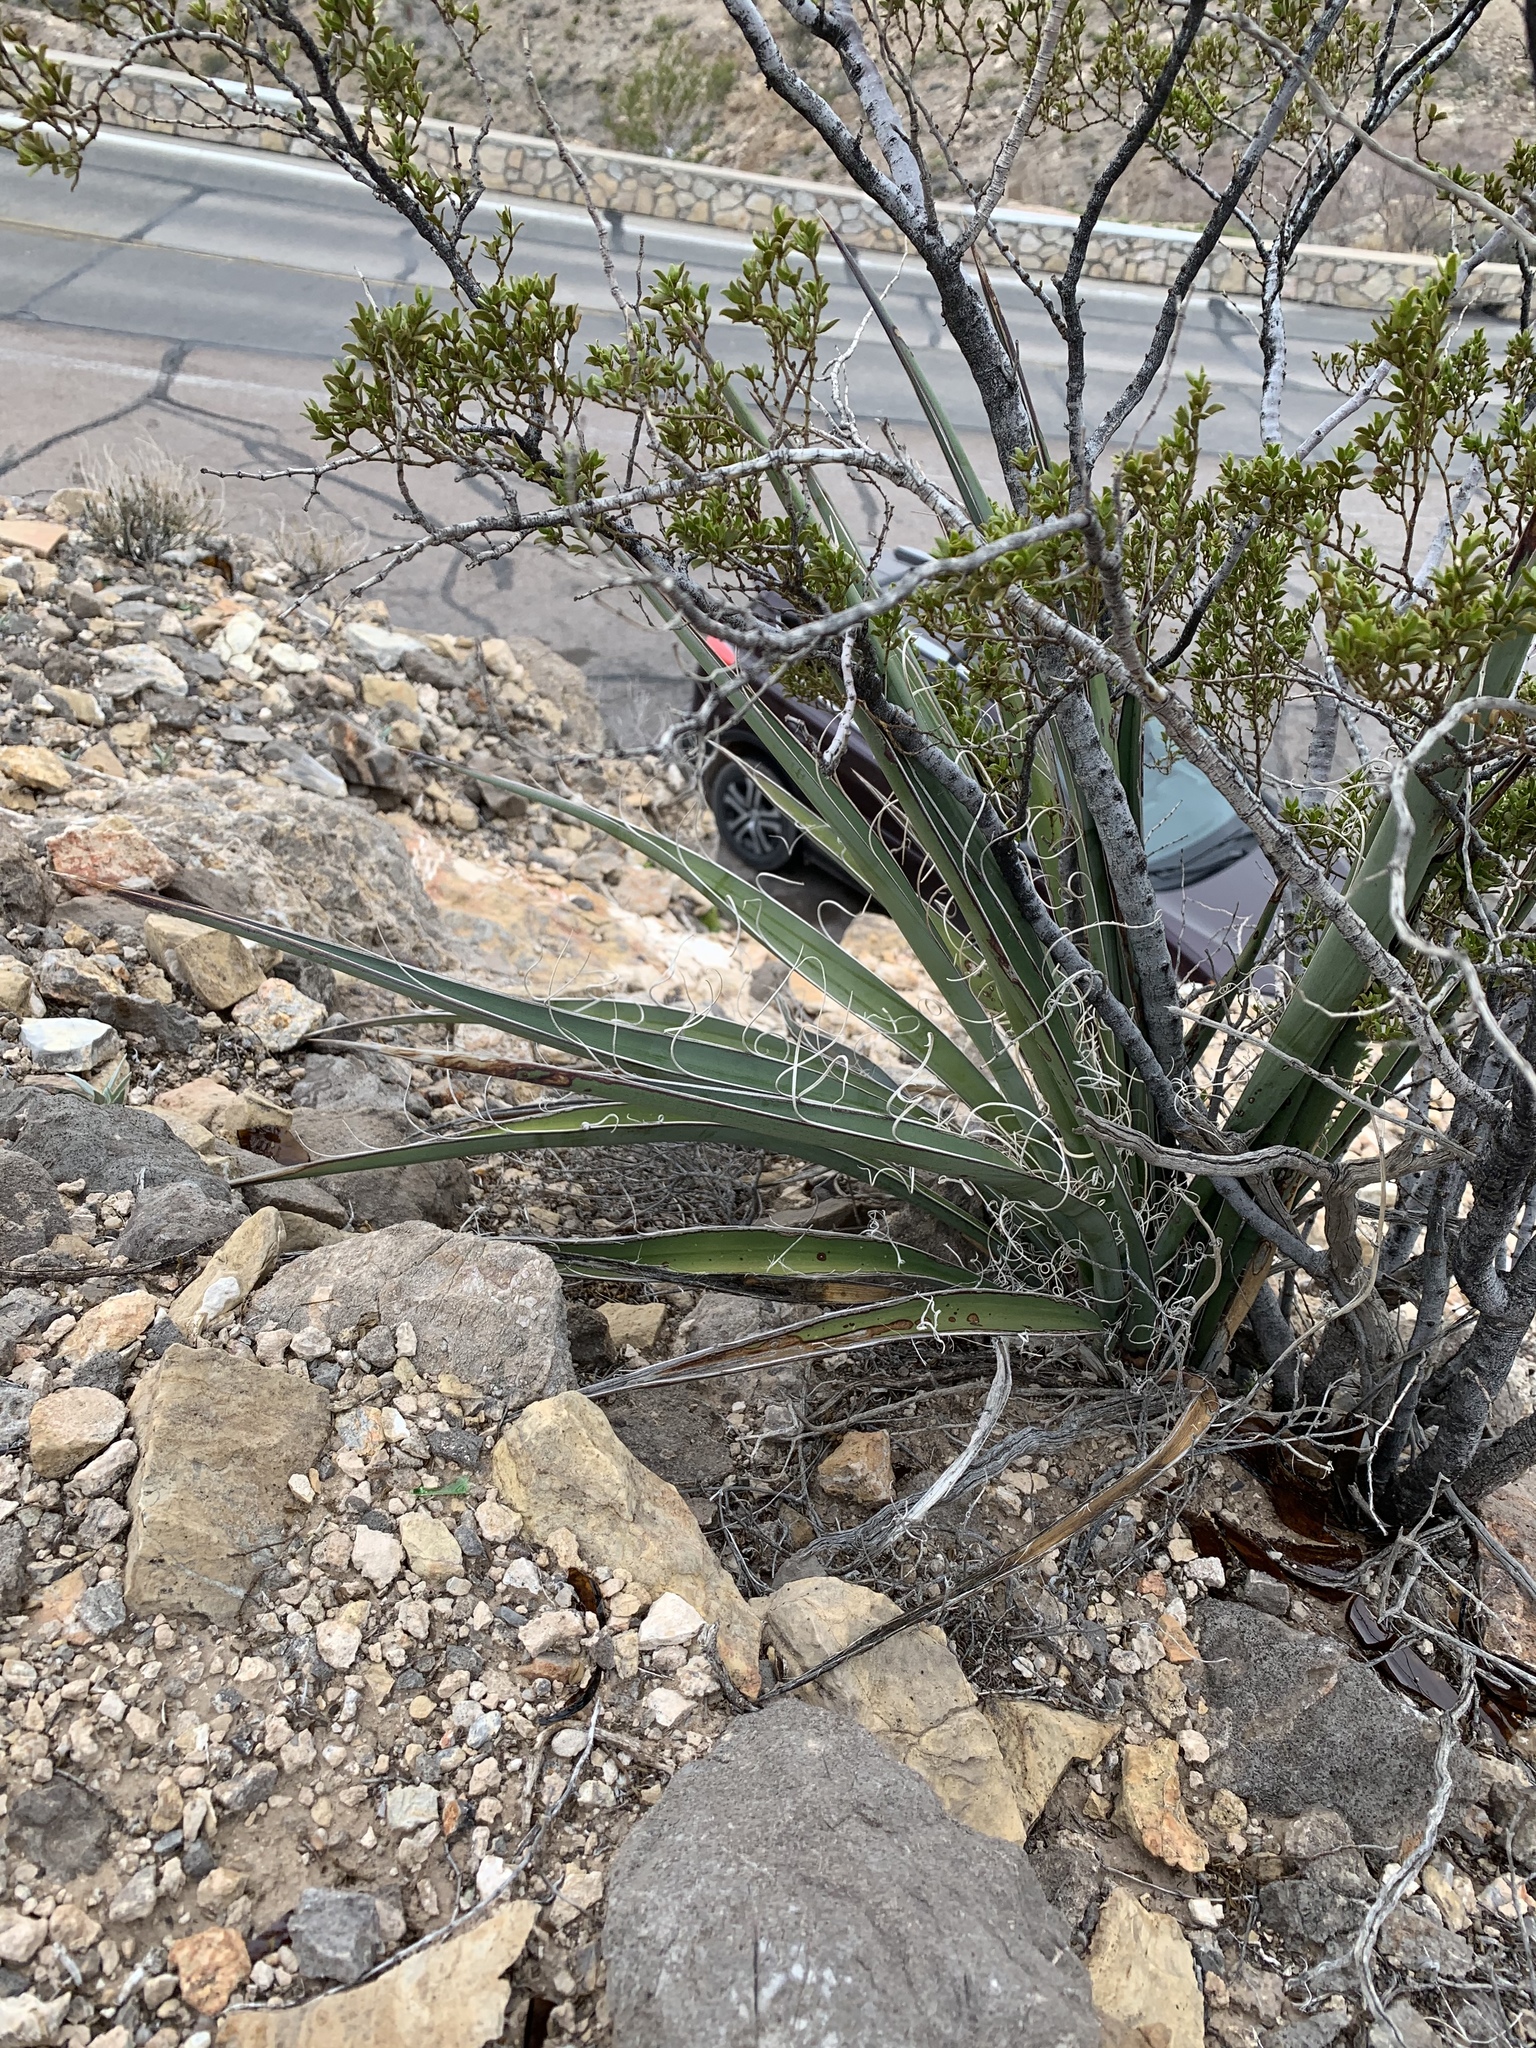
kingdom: Plantae
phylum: Tracheophyta
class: Liliopsida
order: Asparagales
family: Asparagaceae
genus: Yucca
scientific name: Yucca baccata
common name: Banana yucca
